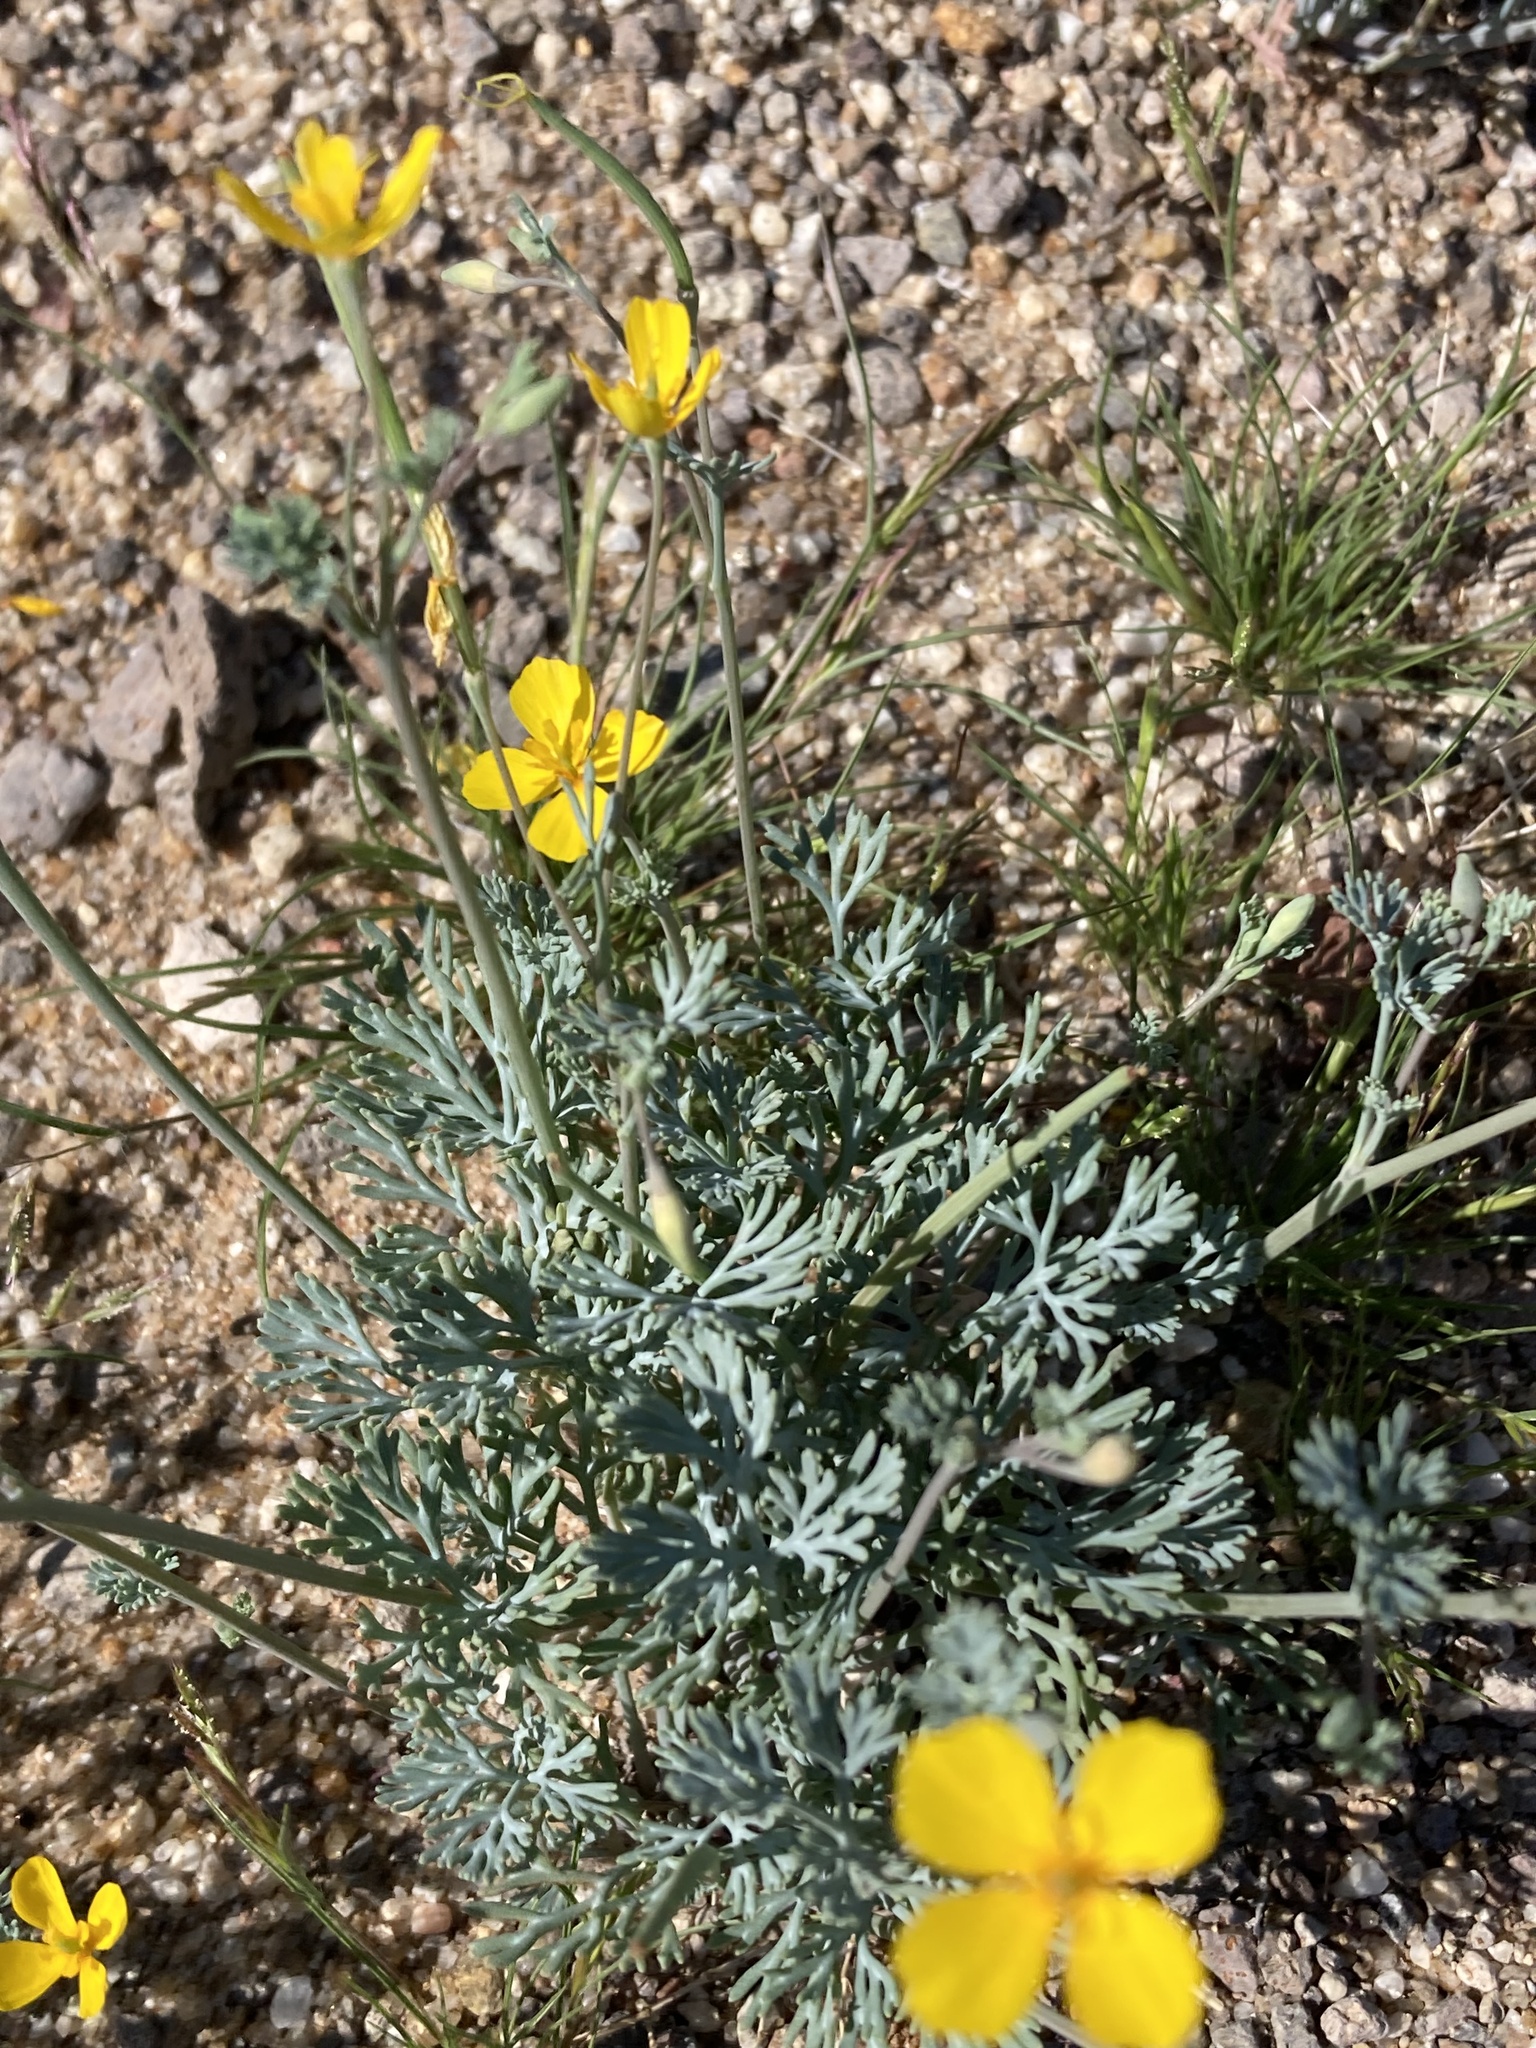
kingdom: Plantae
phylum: Tracheophyta
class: Magnoliopsida
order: Ranunculales
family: Papaveraceae
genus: Eschscholzia
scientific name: Eschscholzia minutiflora
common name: Small-flower california-poppy
